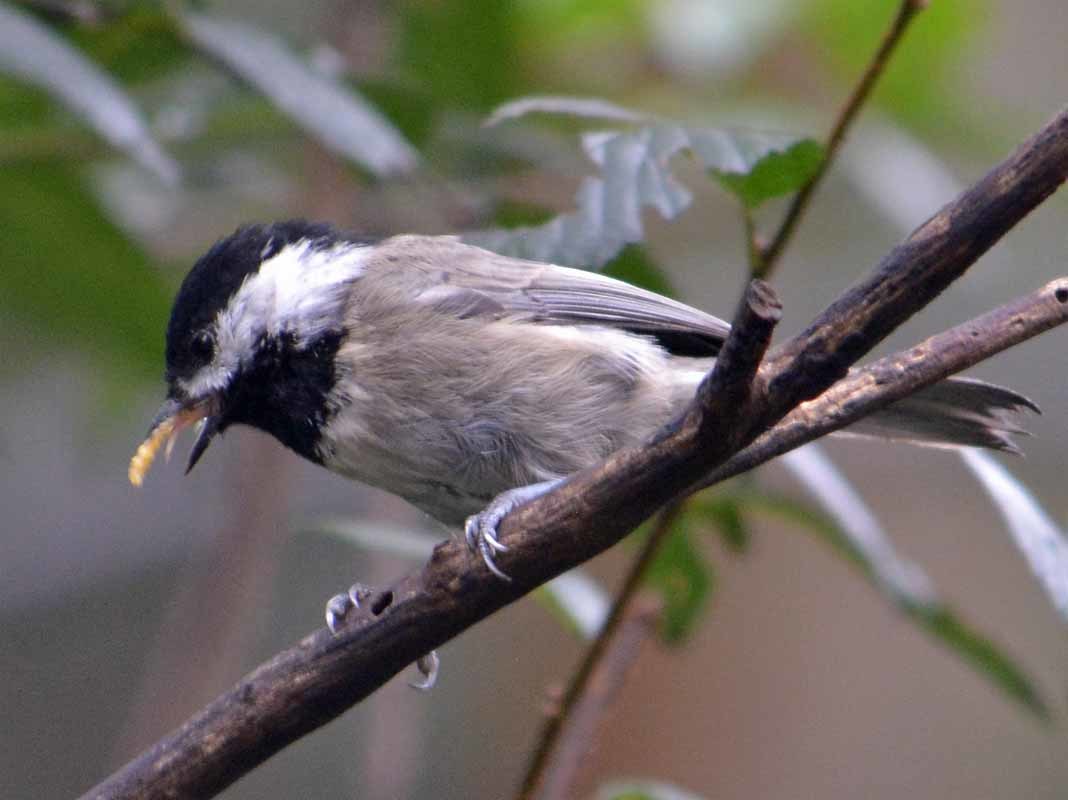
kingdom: Animalia
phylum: Chordata
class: Aves
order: Passeriformes
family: Paridae
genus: Poecile
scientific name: Poecile sclateri
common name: Mexican chickadee
